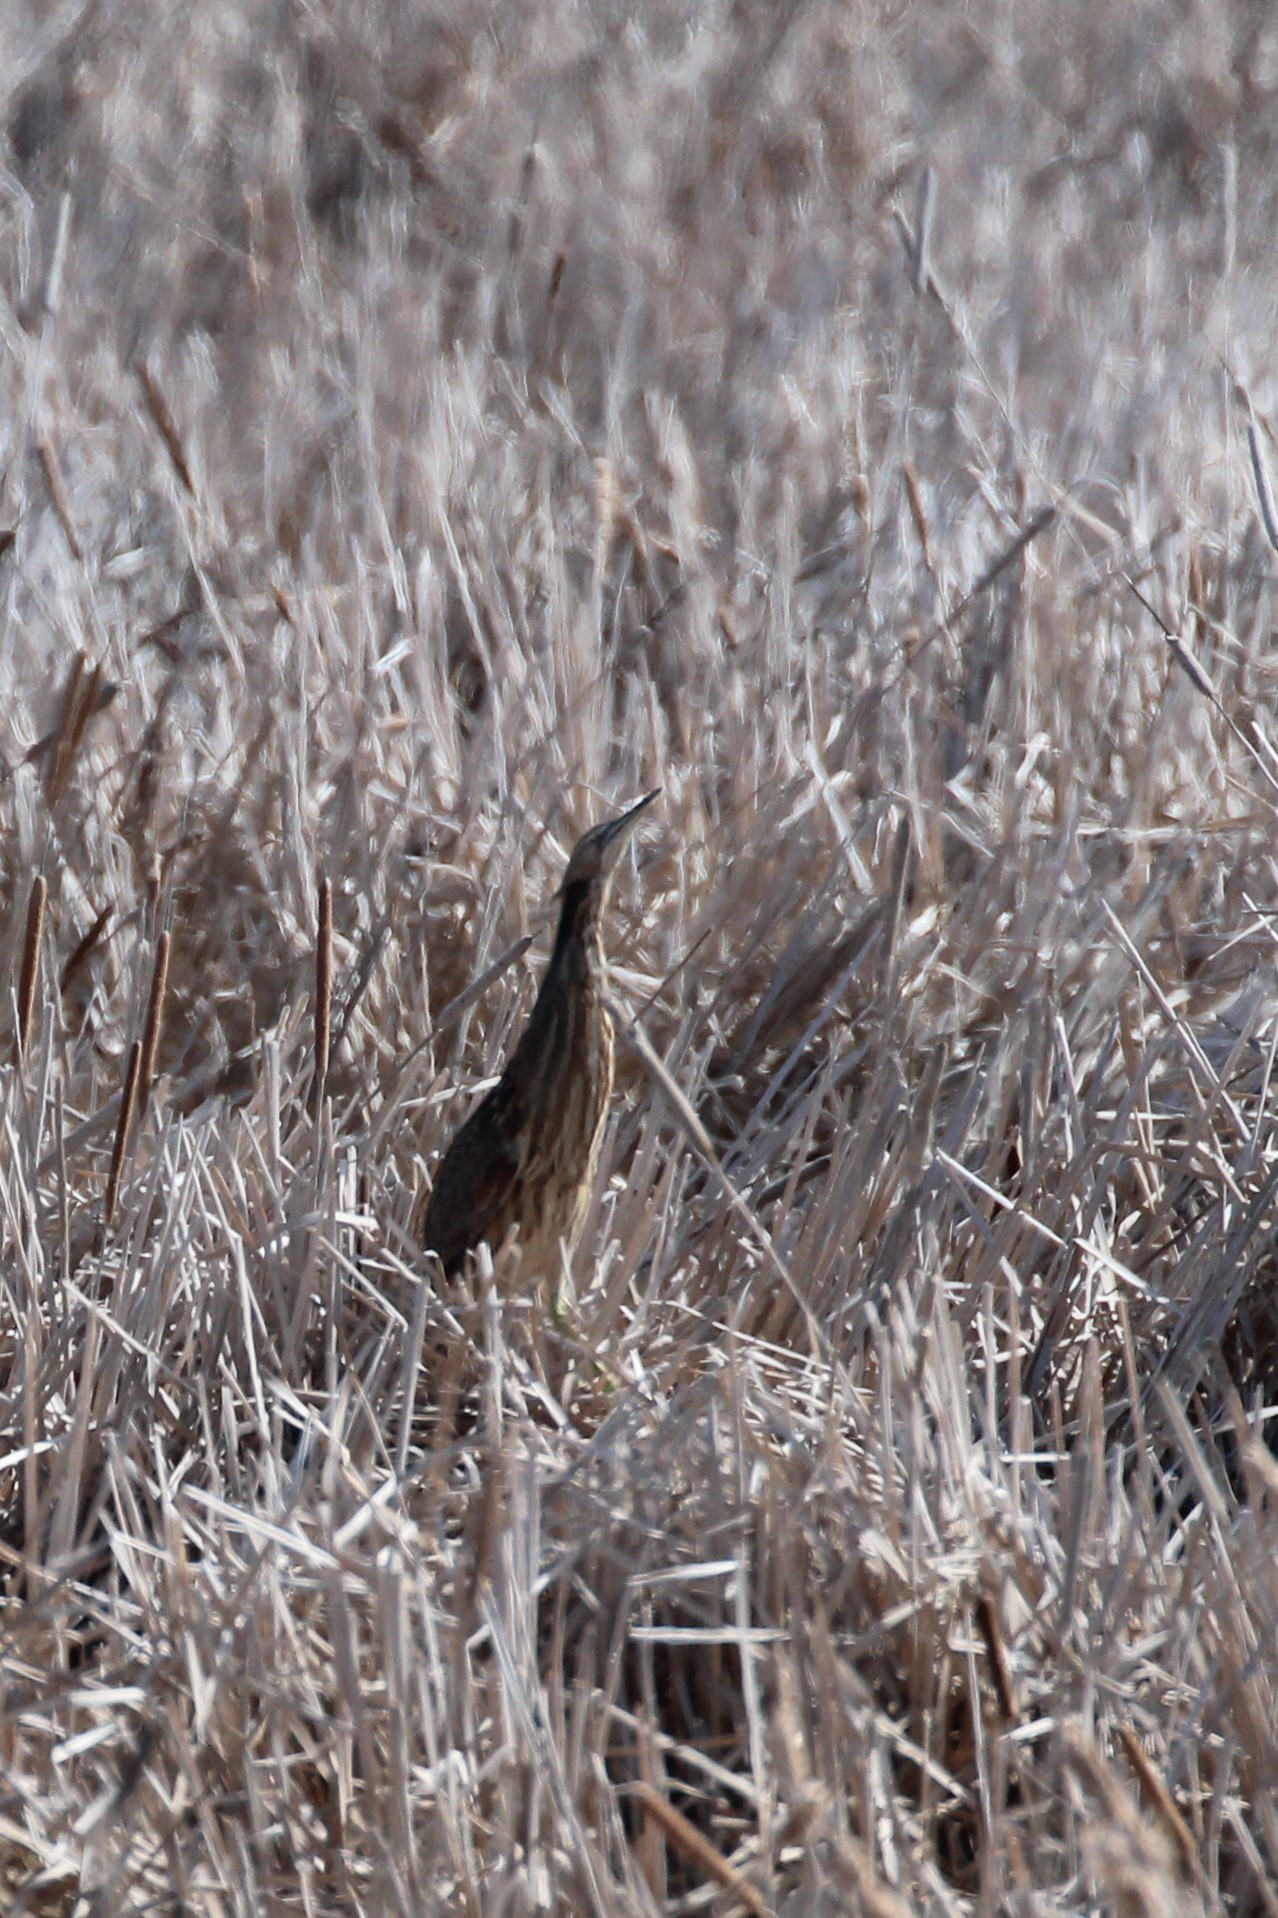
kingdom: Animalia
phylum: Chordata
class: Aves
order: Pelecaniformes
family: Ardeidae
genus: Botaurus
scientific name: Botaurus lentiginosus
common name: American bittern
